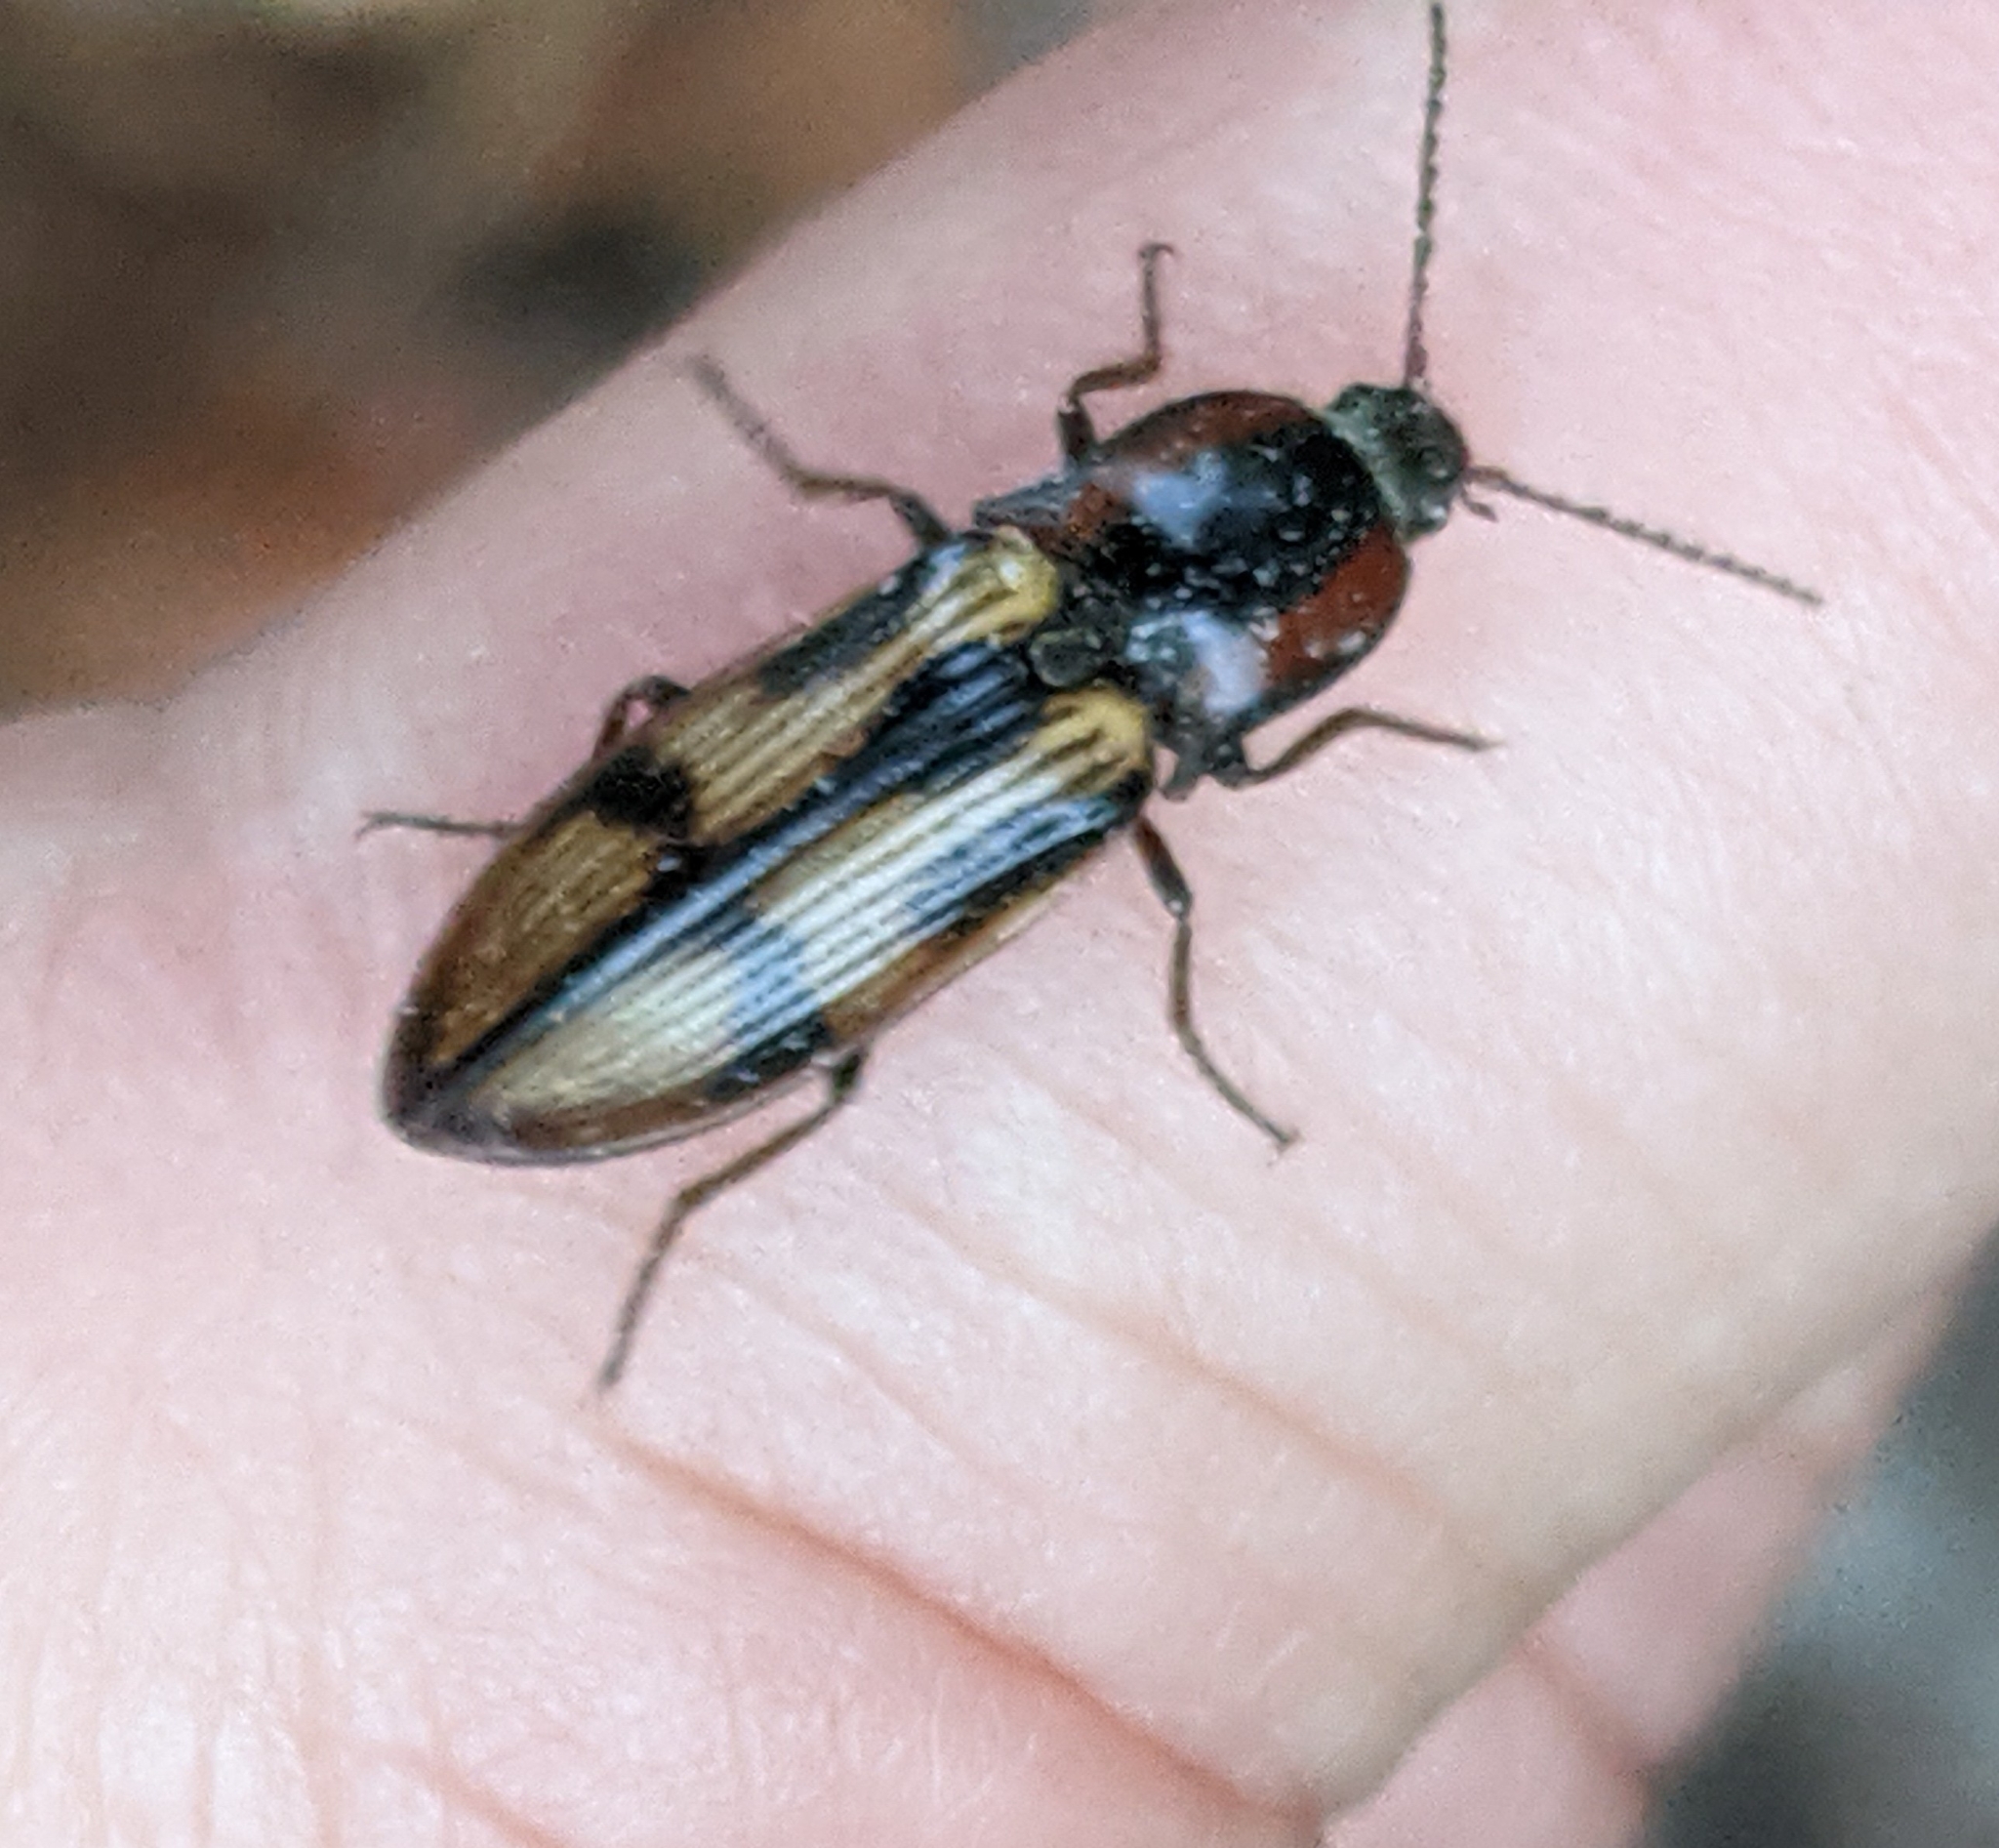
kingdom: Animalia
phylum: Arthropoda
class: Insecta
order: Coleoptera
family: Elateridae
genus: Selatosomus
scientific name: Selatosomus festivus
